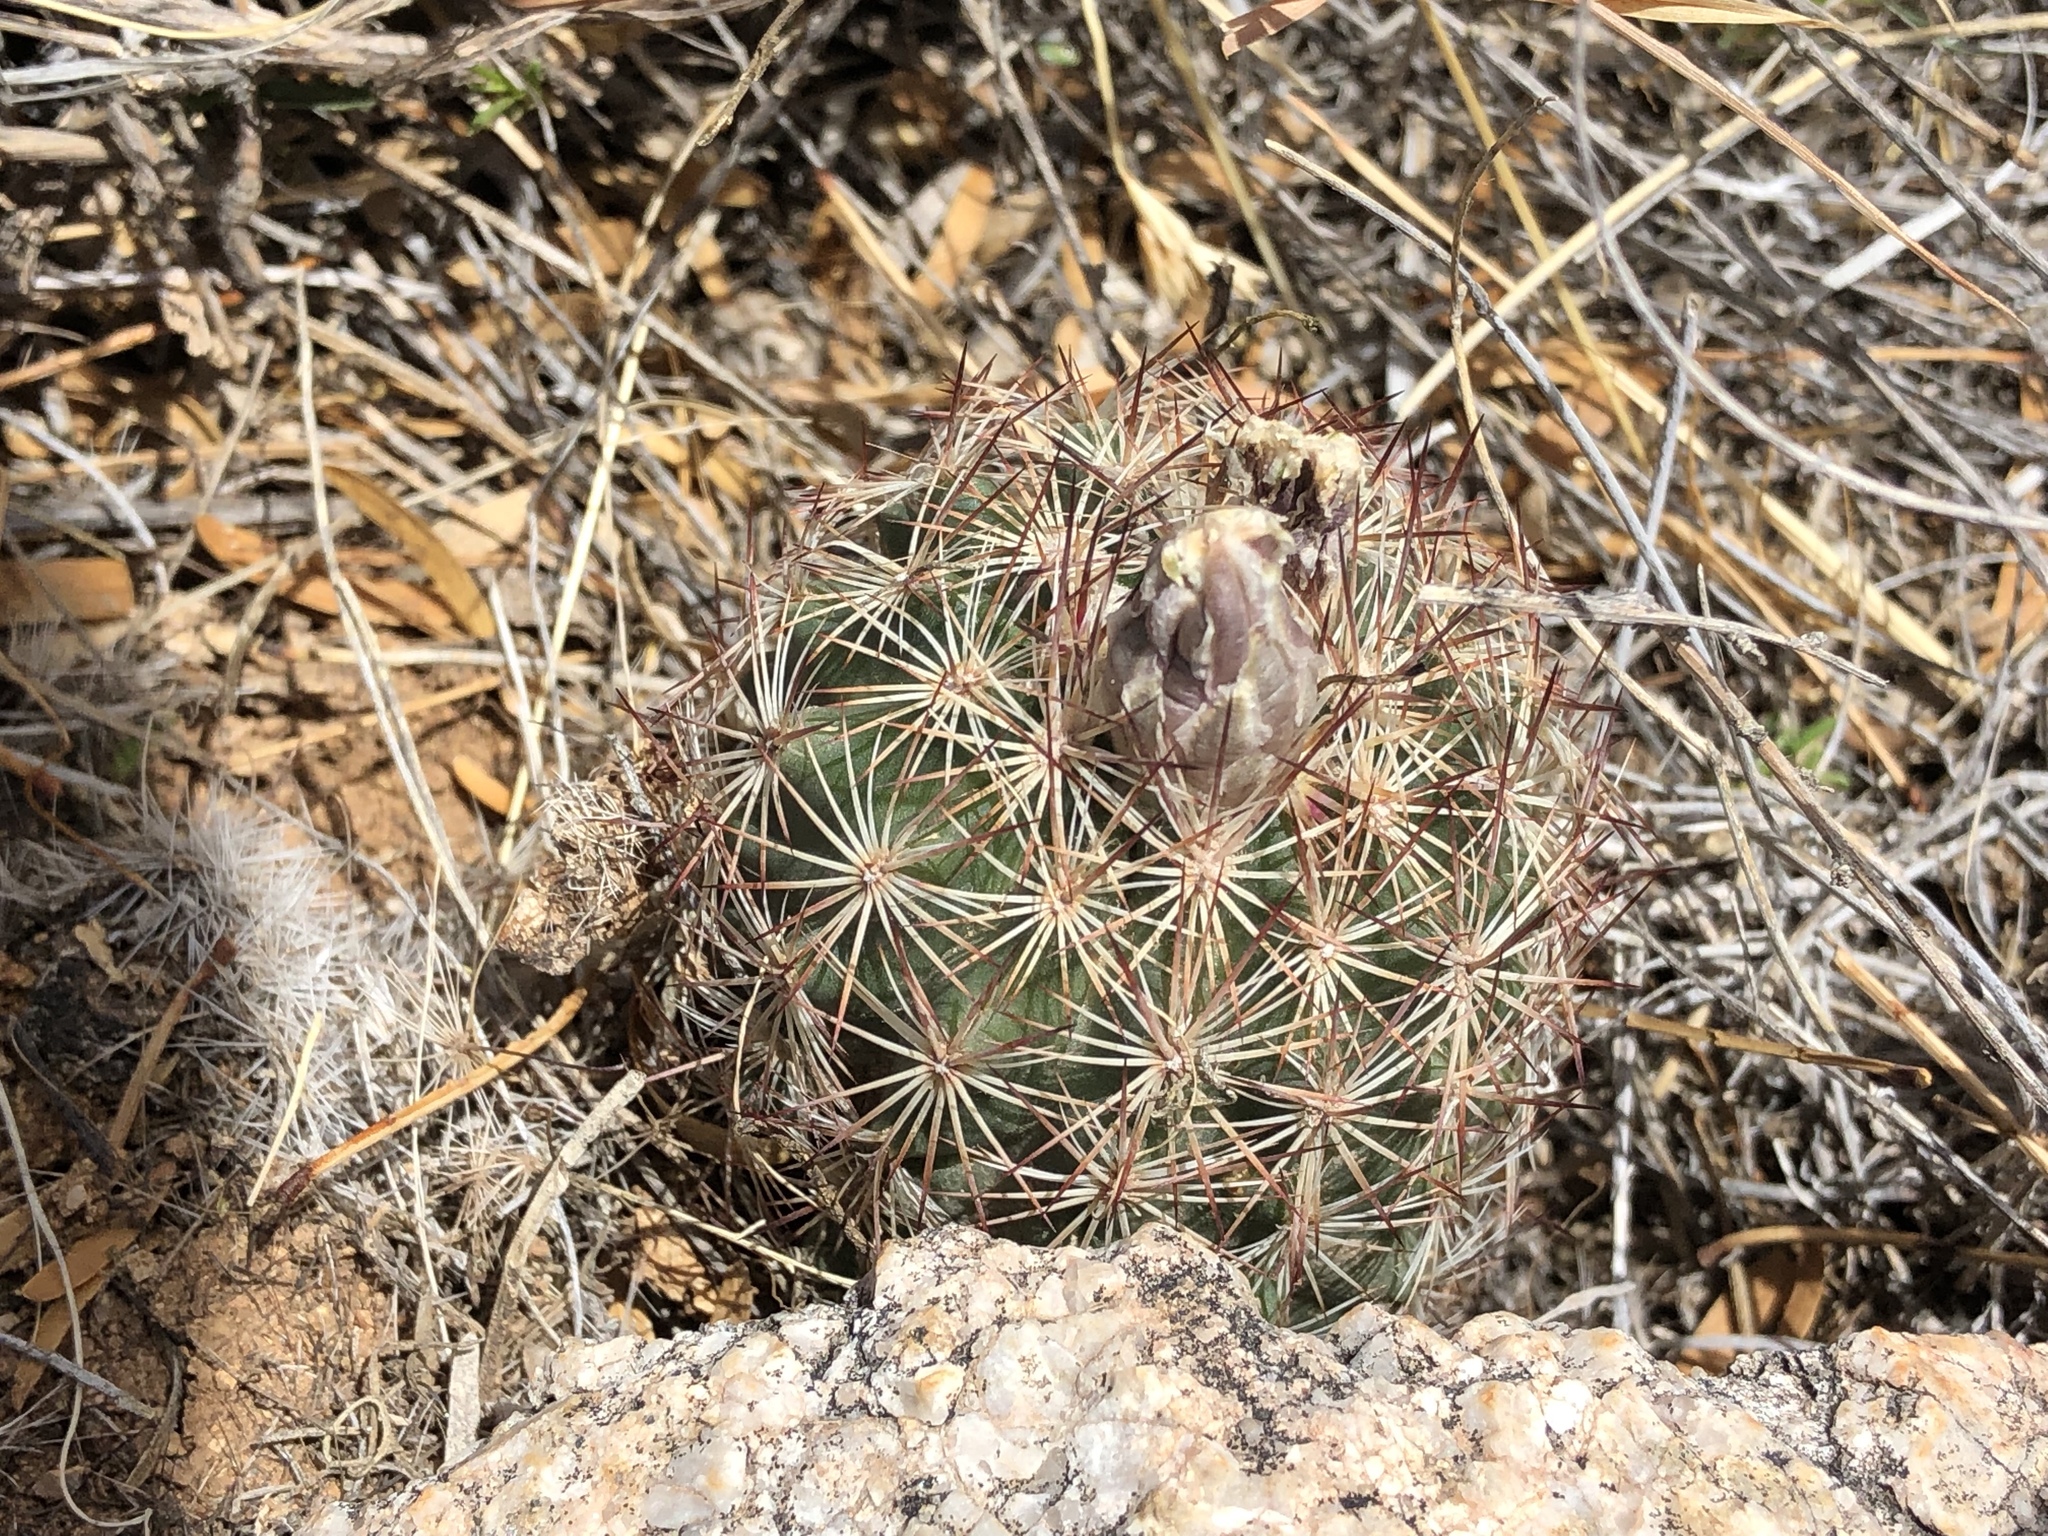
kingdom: Plantae
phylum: Tracheophyta
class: Magnoliopsida
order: Caryophyllales
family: Cactaceae
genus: Sclerocactus
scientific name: Sclerocactus intertextus
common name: White fish-hook cactus
